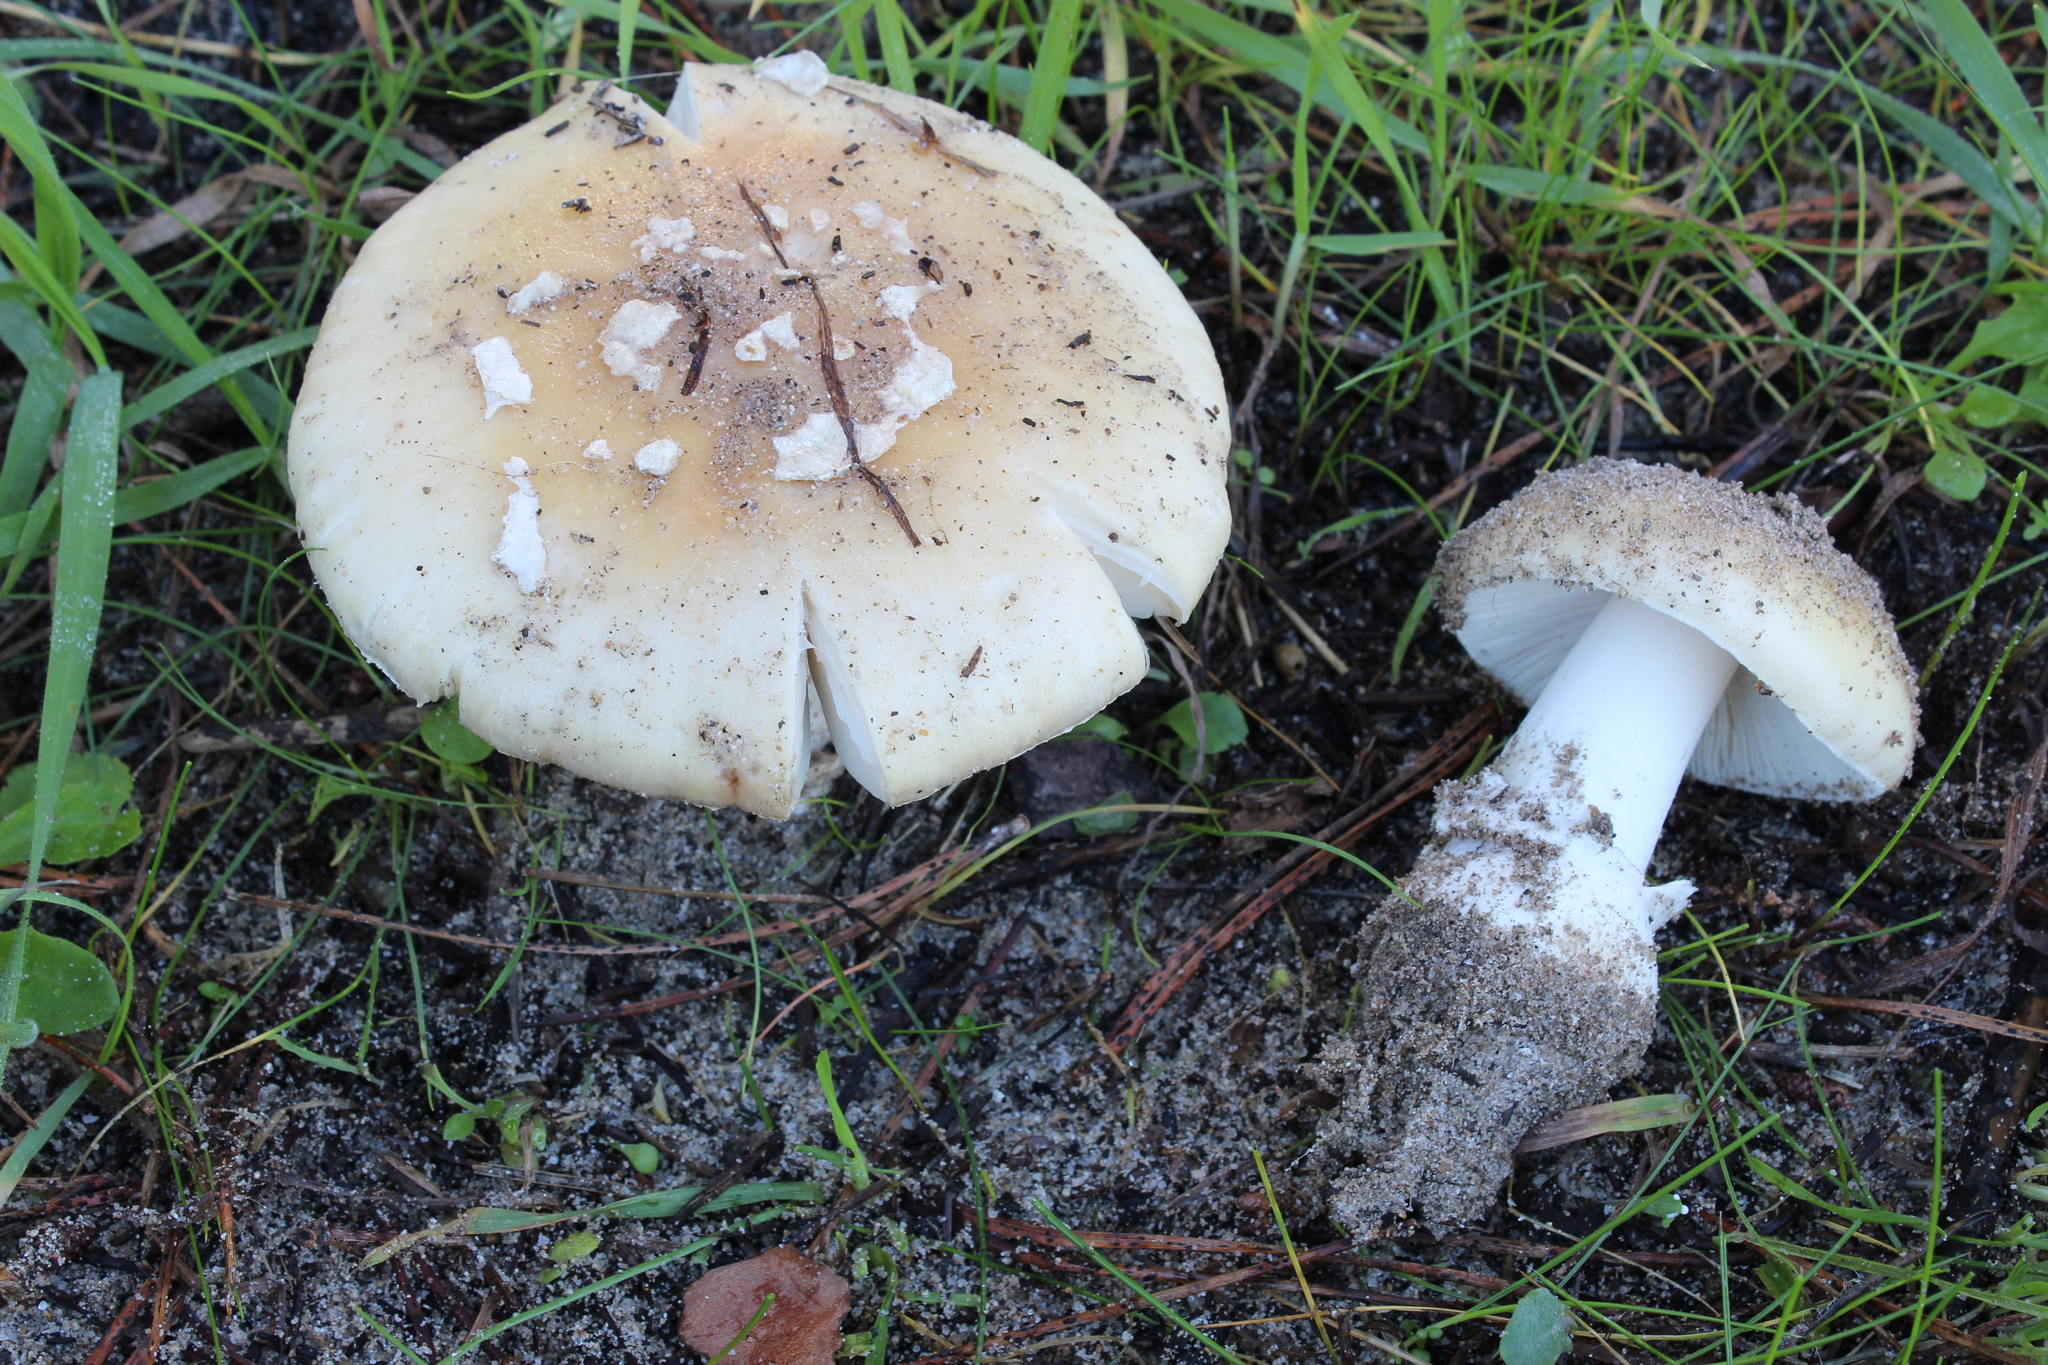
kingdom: Fungi
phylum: Basidiomycota
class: Agaricomycetes
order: Agaricales
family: Amanitaceae
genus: Amanita
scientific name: Amanita gemmata
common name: Jewelled amanita
